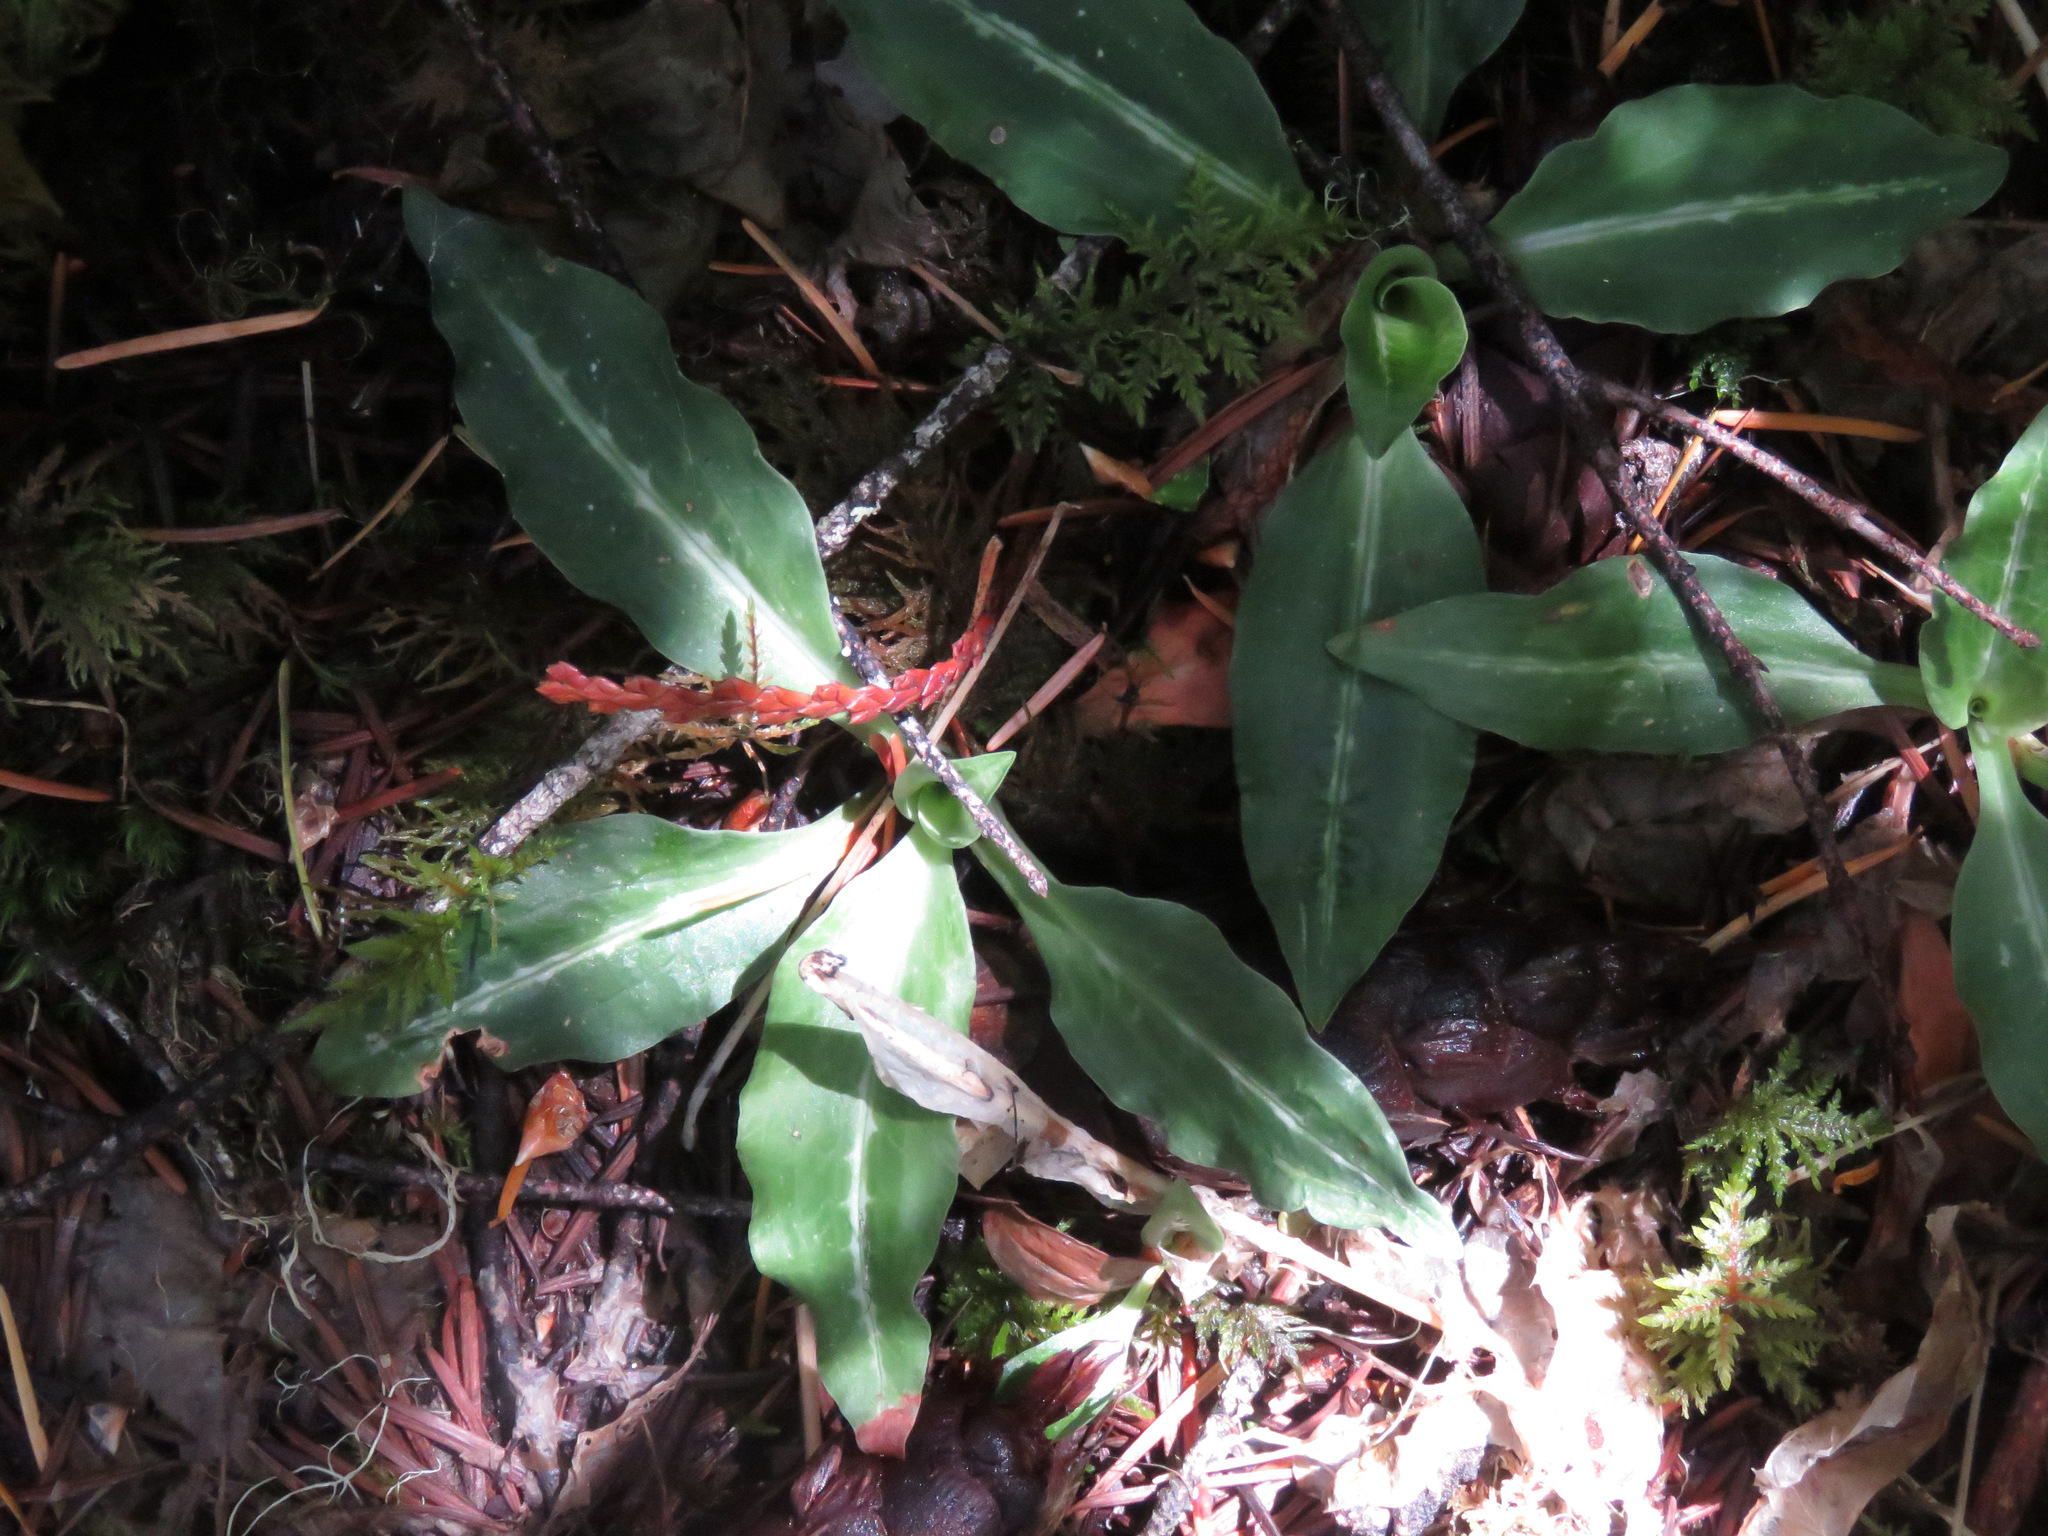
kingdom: Plantae
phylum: Tracheophyta
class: Liliopsida
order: Asparagales
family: Orchidaceae
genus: Goodyera
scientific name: Goodyera oblongifolia
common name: Giant rattlesnake-plantain
